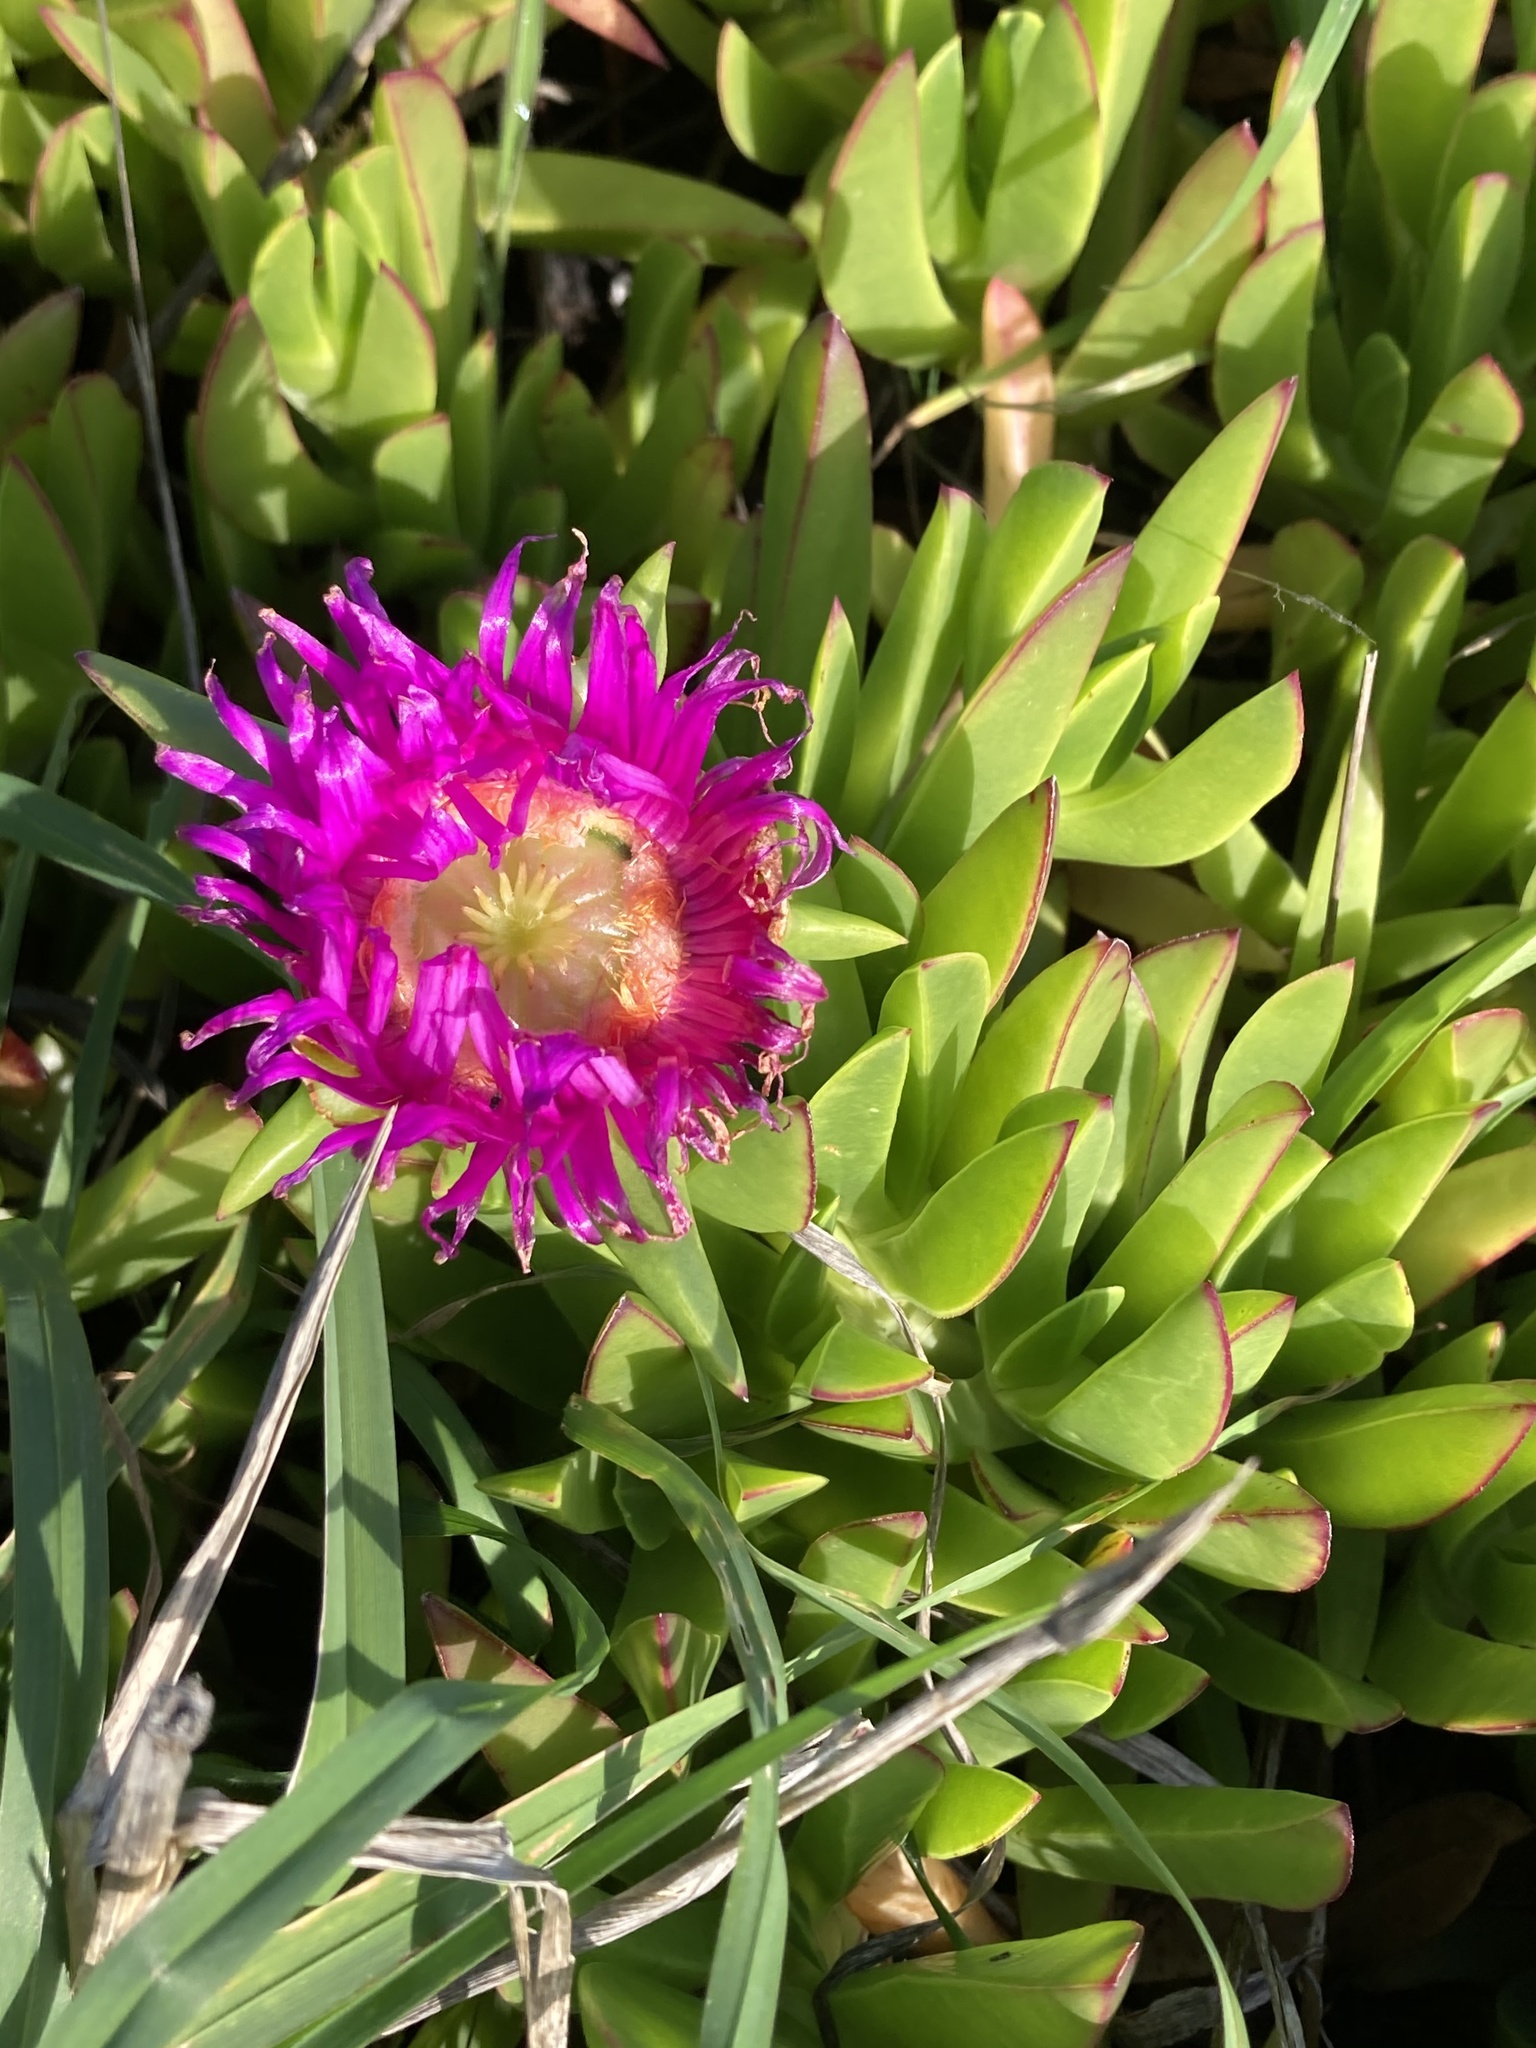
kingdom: Plantae
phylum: Tracheophyta
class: Magnoliopsida
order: Caryophyllales
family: Aizoaceae
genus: Carpobrotus
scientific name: Carpobrotus chilensis
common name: Sea fig
